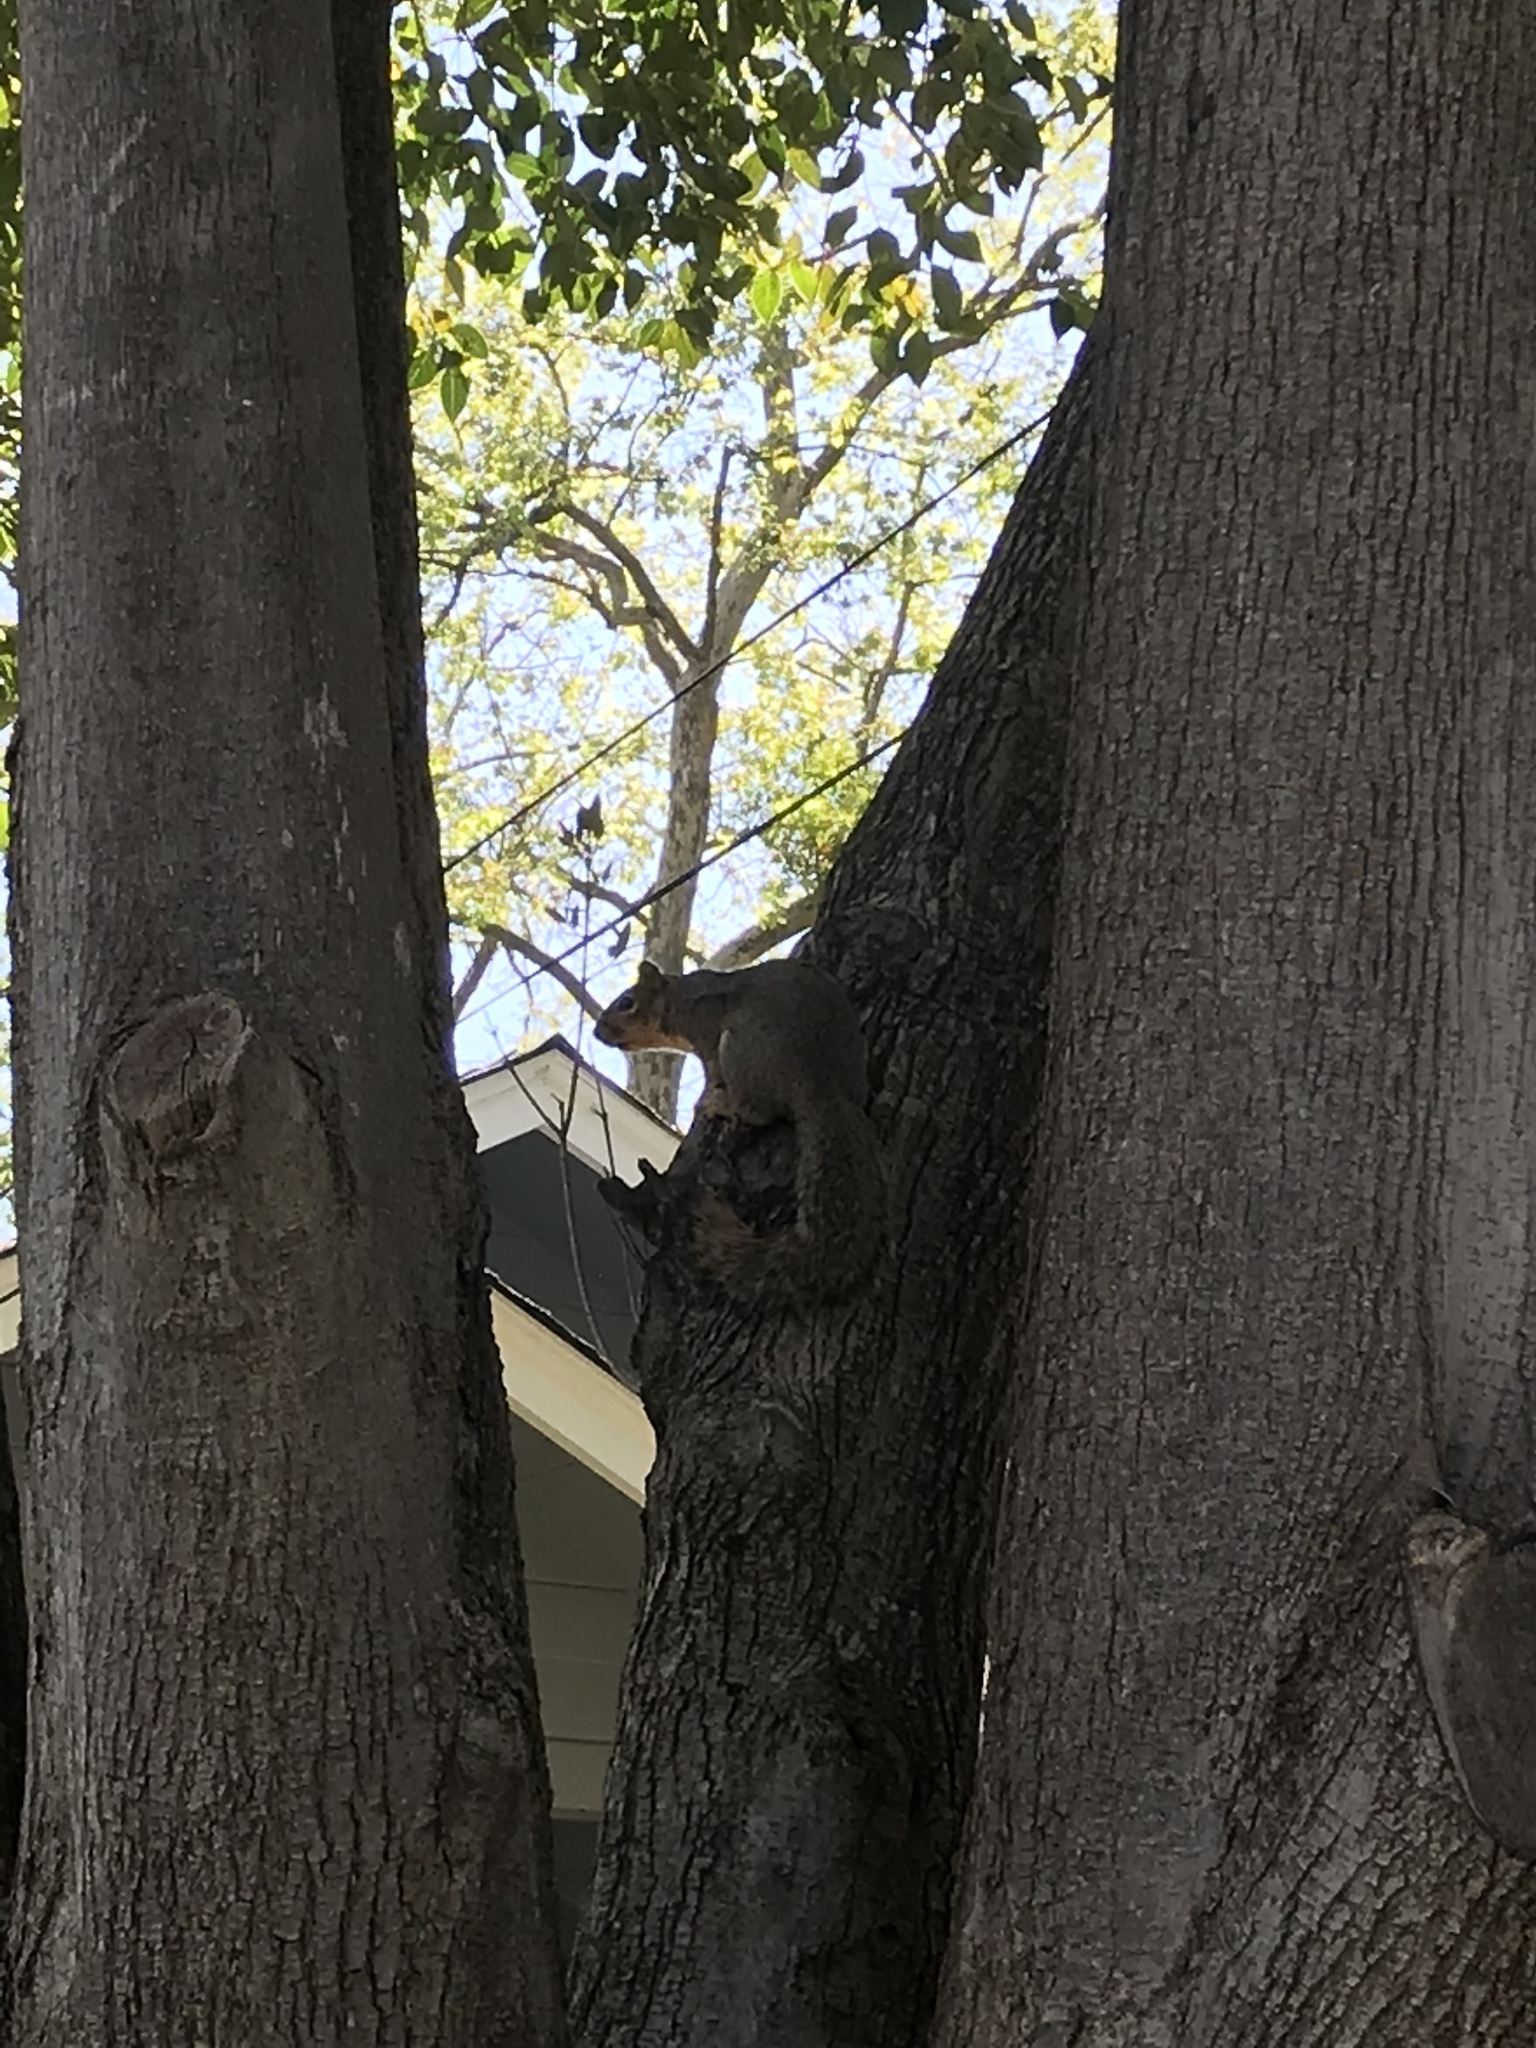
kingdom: Animalia
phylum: Chordata
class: Mammalia
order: Rodentia
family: Sciuridae
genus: Sciurus
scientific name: Sciurus niger
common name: Fox squirrel
